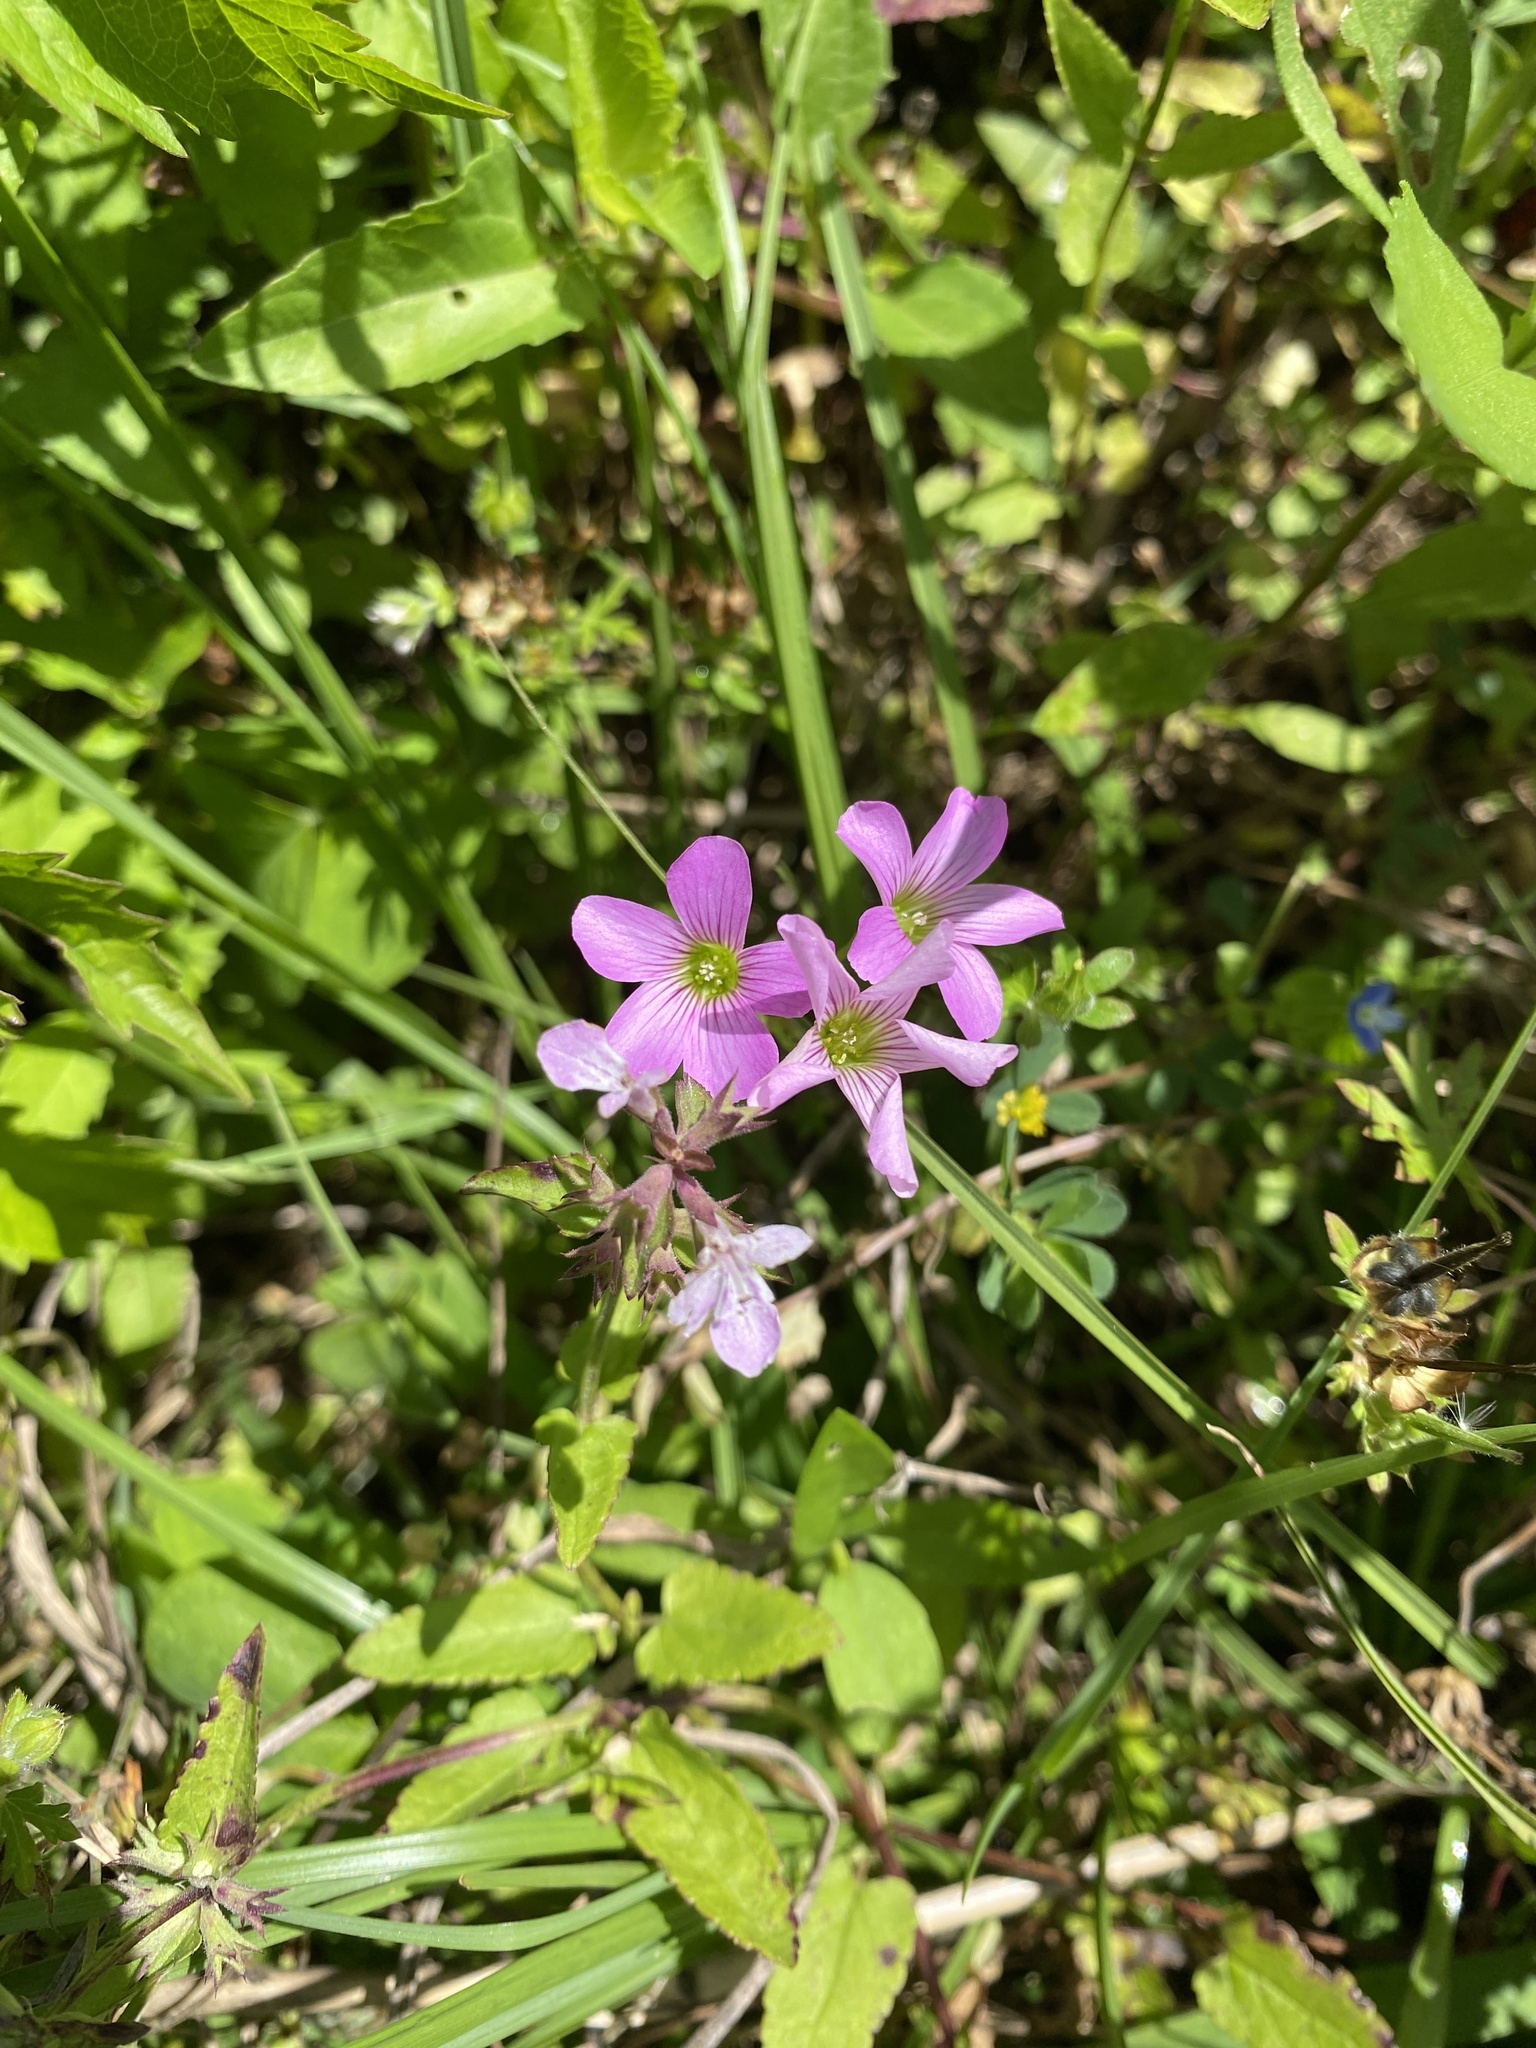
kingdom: Plantae
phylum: Tracheophyta
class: Magnoliopsida
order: Oxalidales
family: Oxalidaceae
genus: Oxalis
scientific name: Oxalis debilis
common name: Large-flowered pink-sorrel
